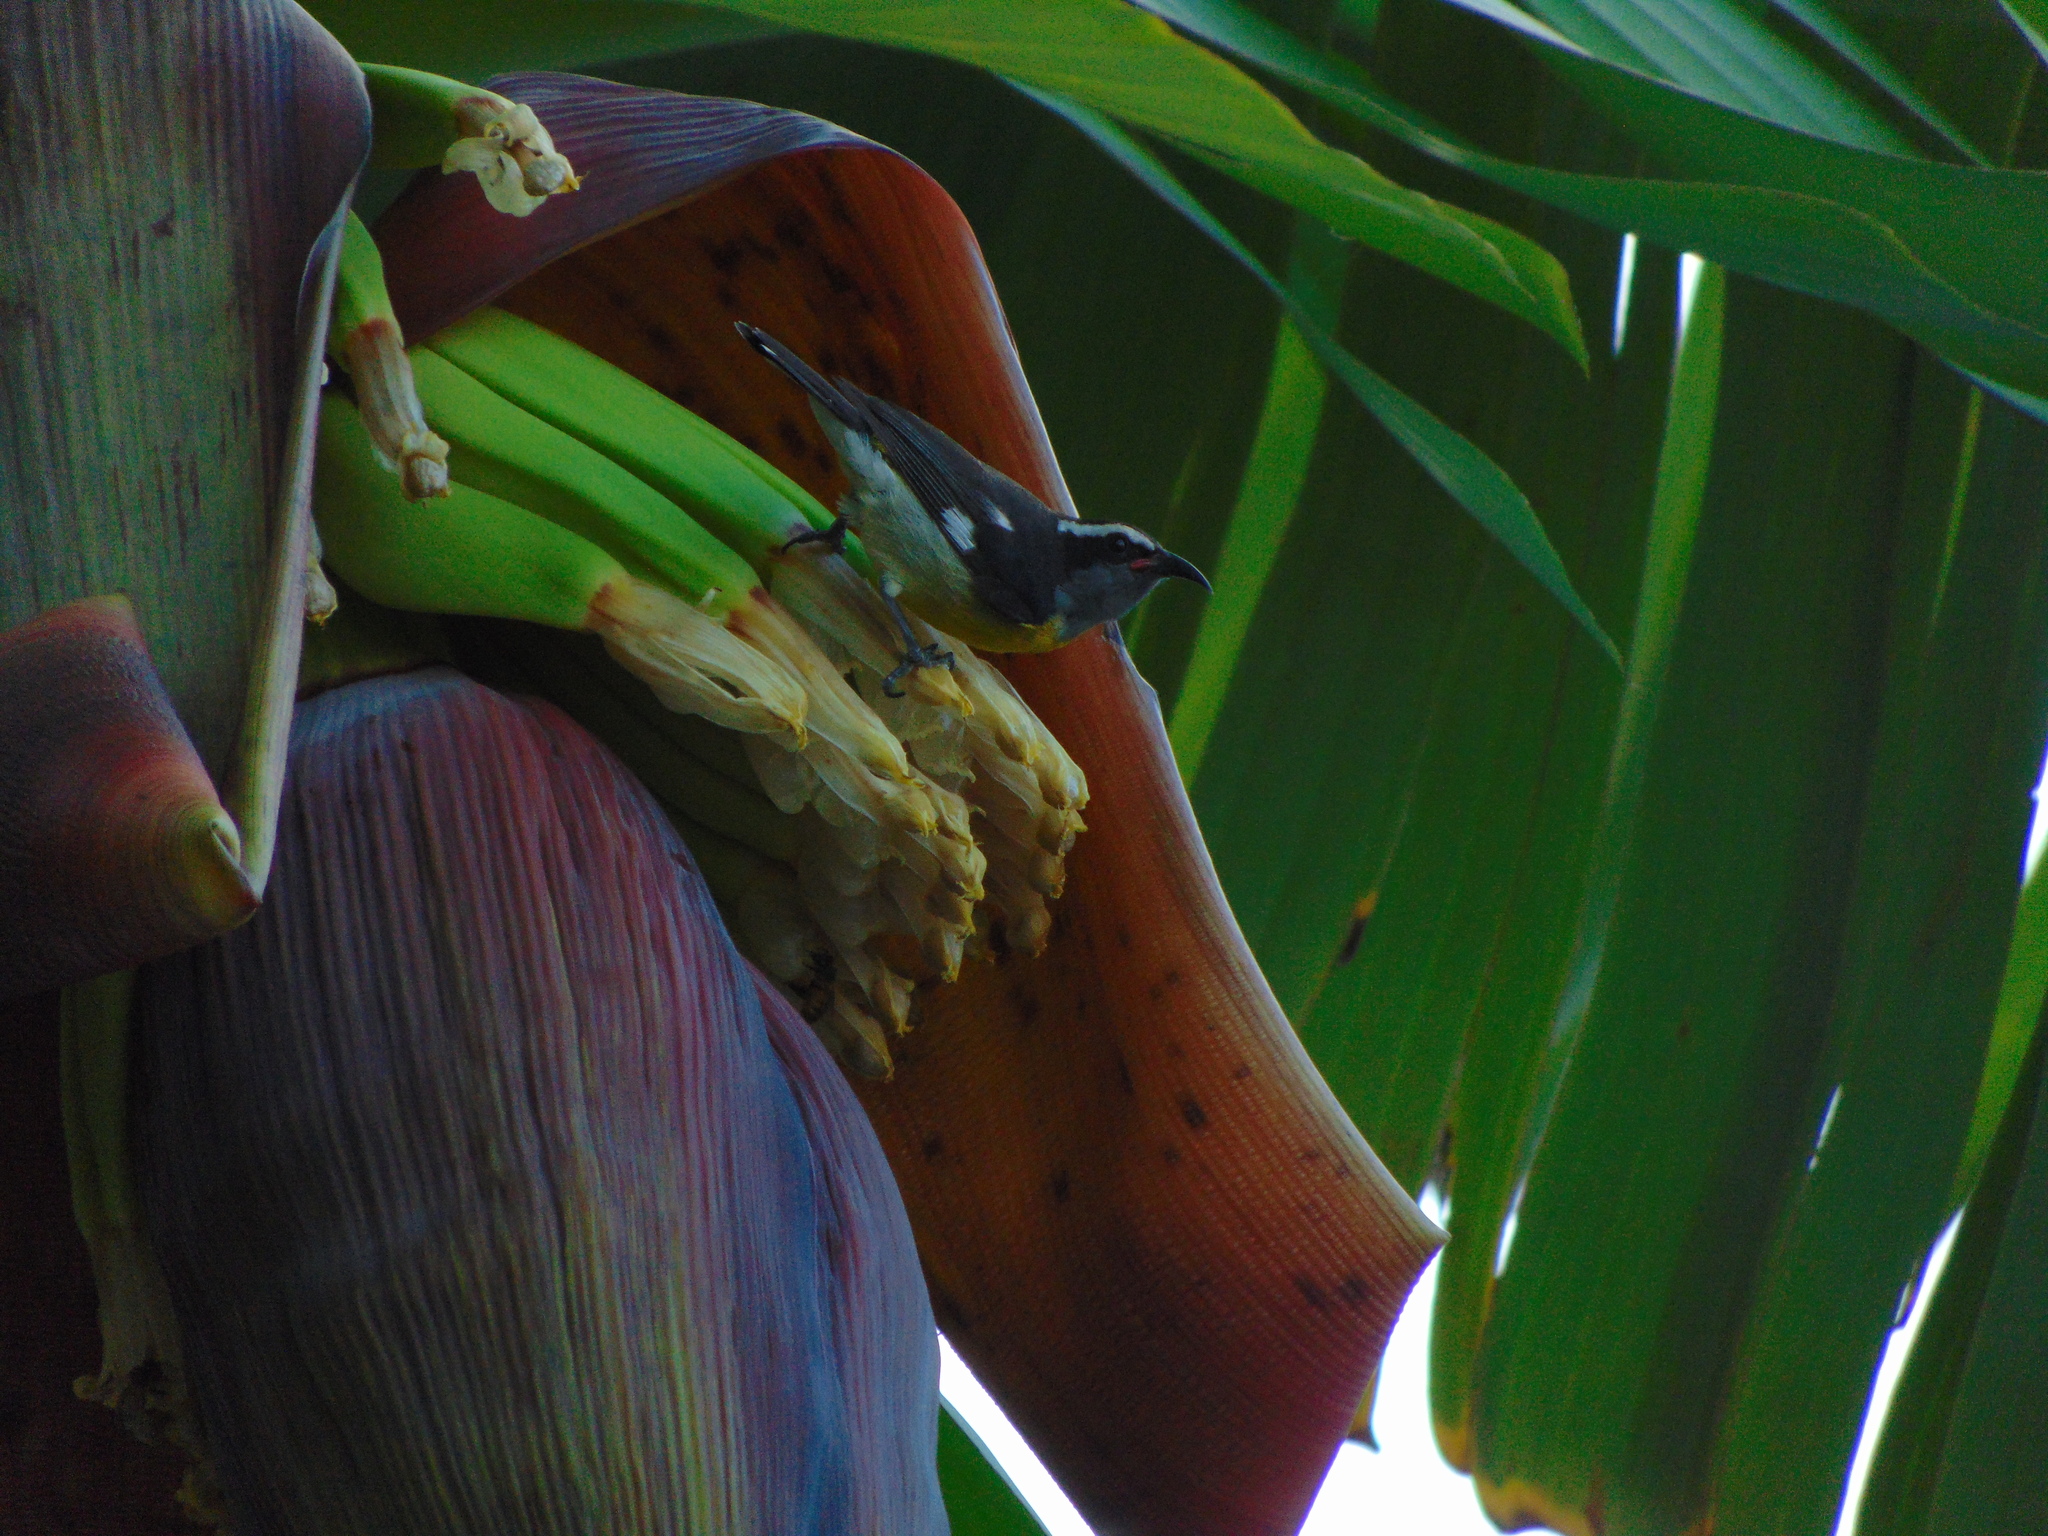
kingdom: Animalia
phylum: Chordata
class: Aves
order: Passeriformes
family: Thraupidae
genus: Coereba
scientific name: Coereba flaveola
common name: Bananaquit
